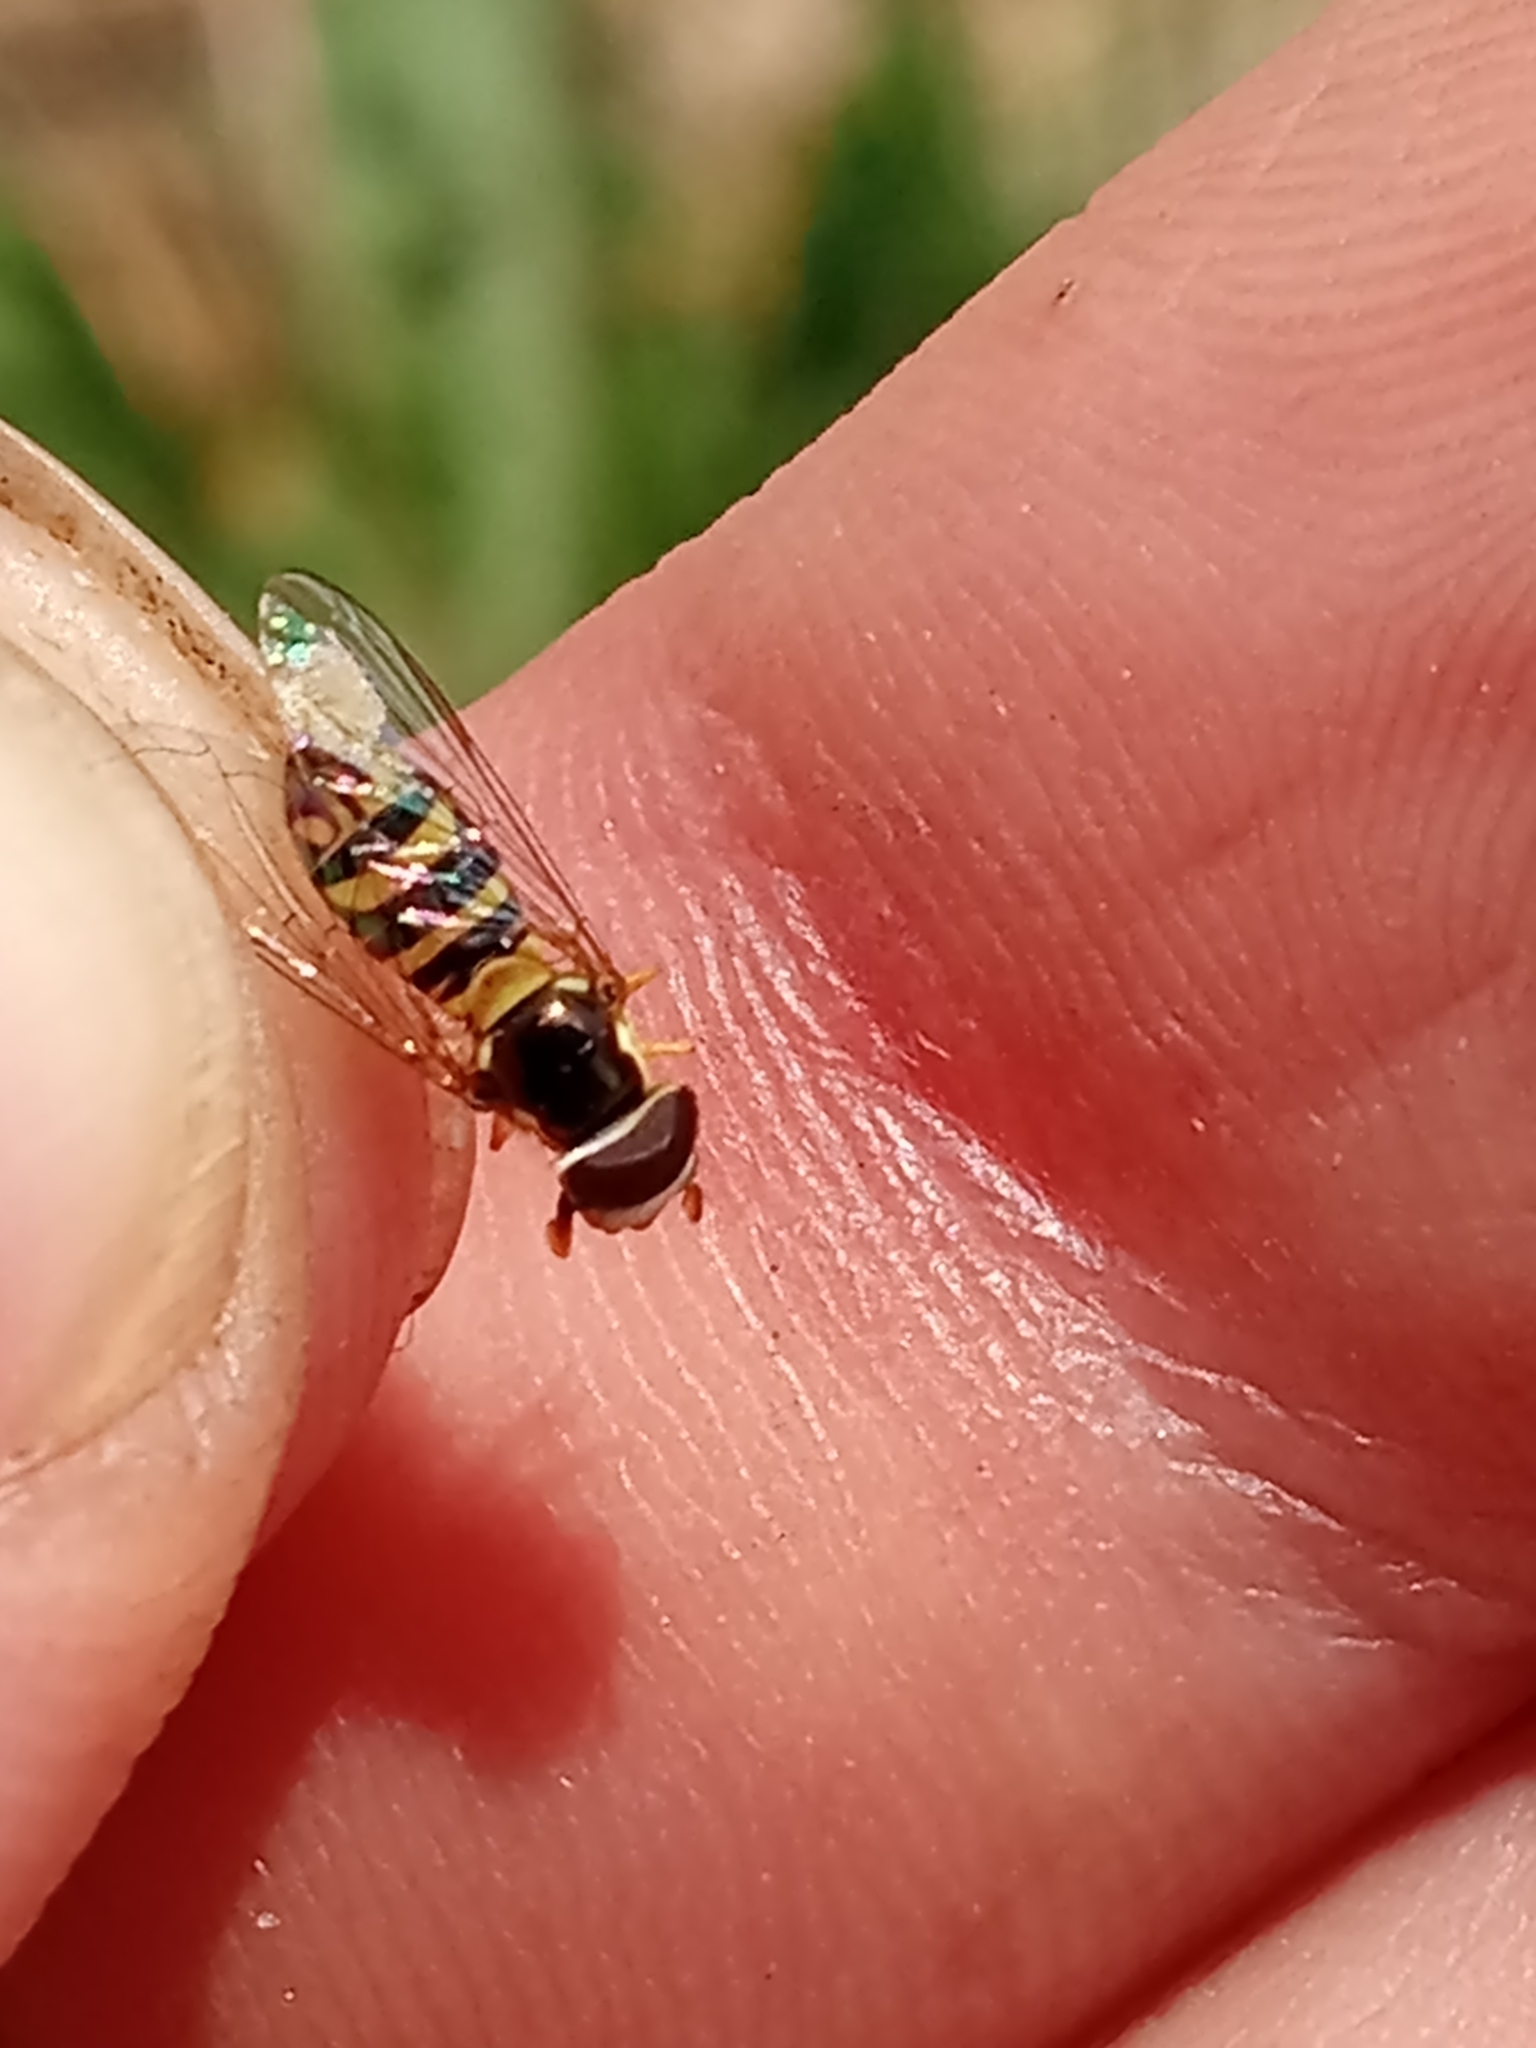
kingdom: Animalia
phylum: Arthropoda
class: Insecta
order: Diptera
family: Syrphidae
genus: Allograpta
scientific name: Allograpta obliqua
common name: Common oblique syrphid
